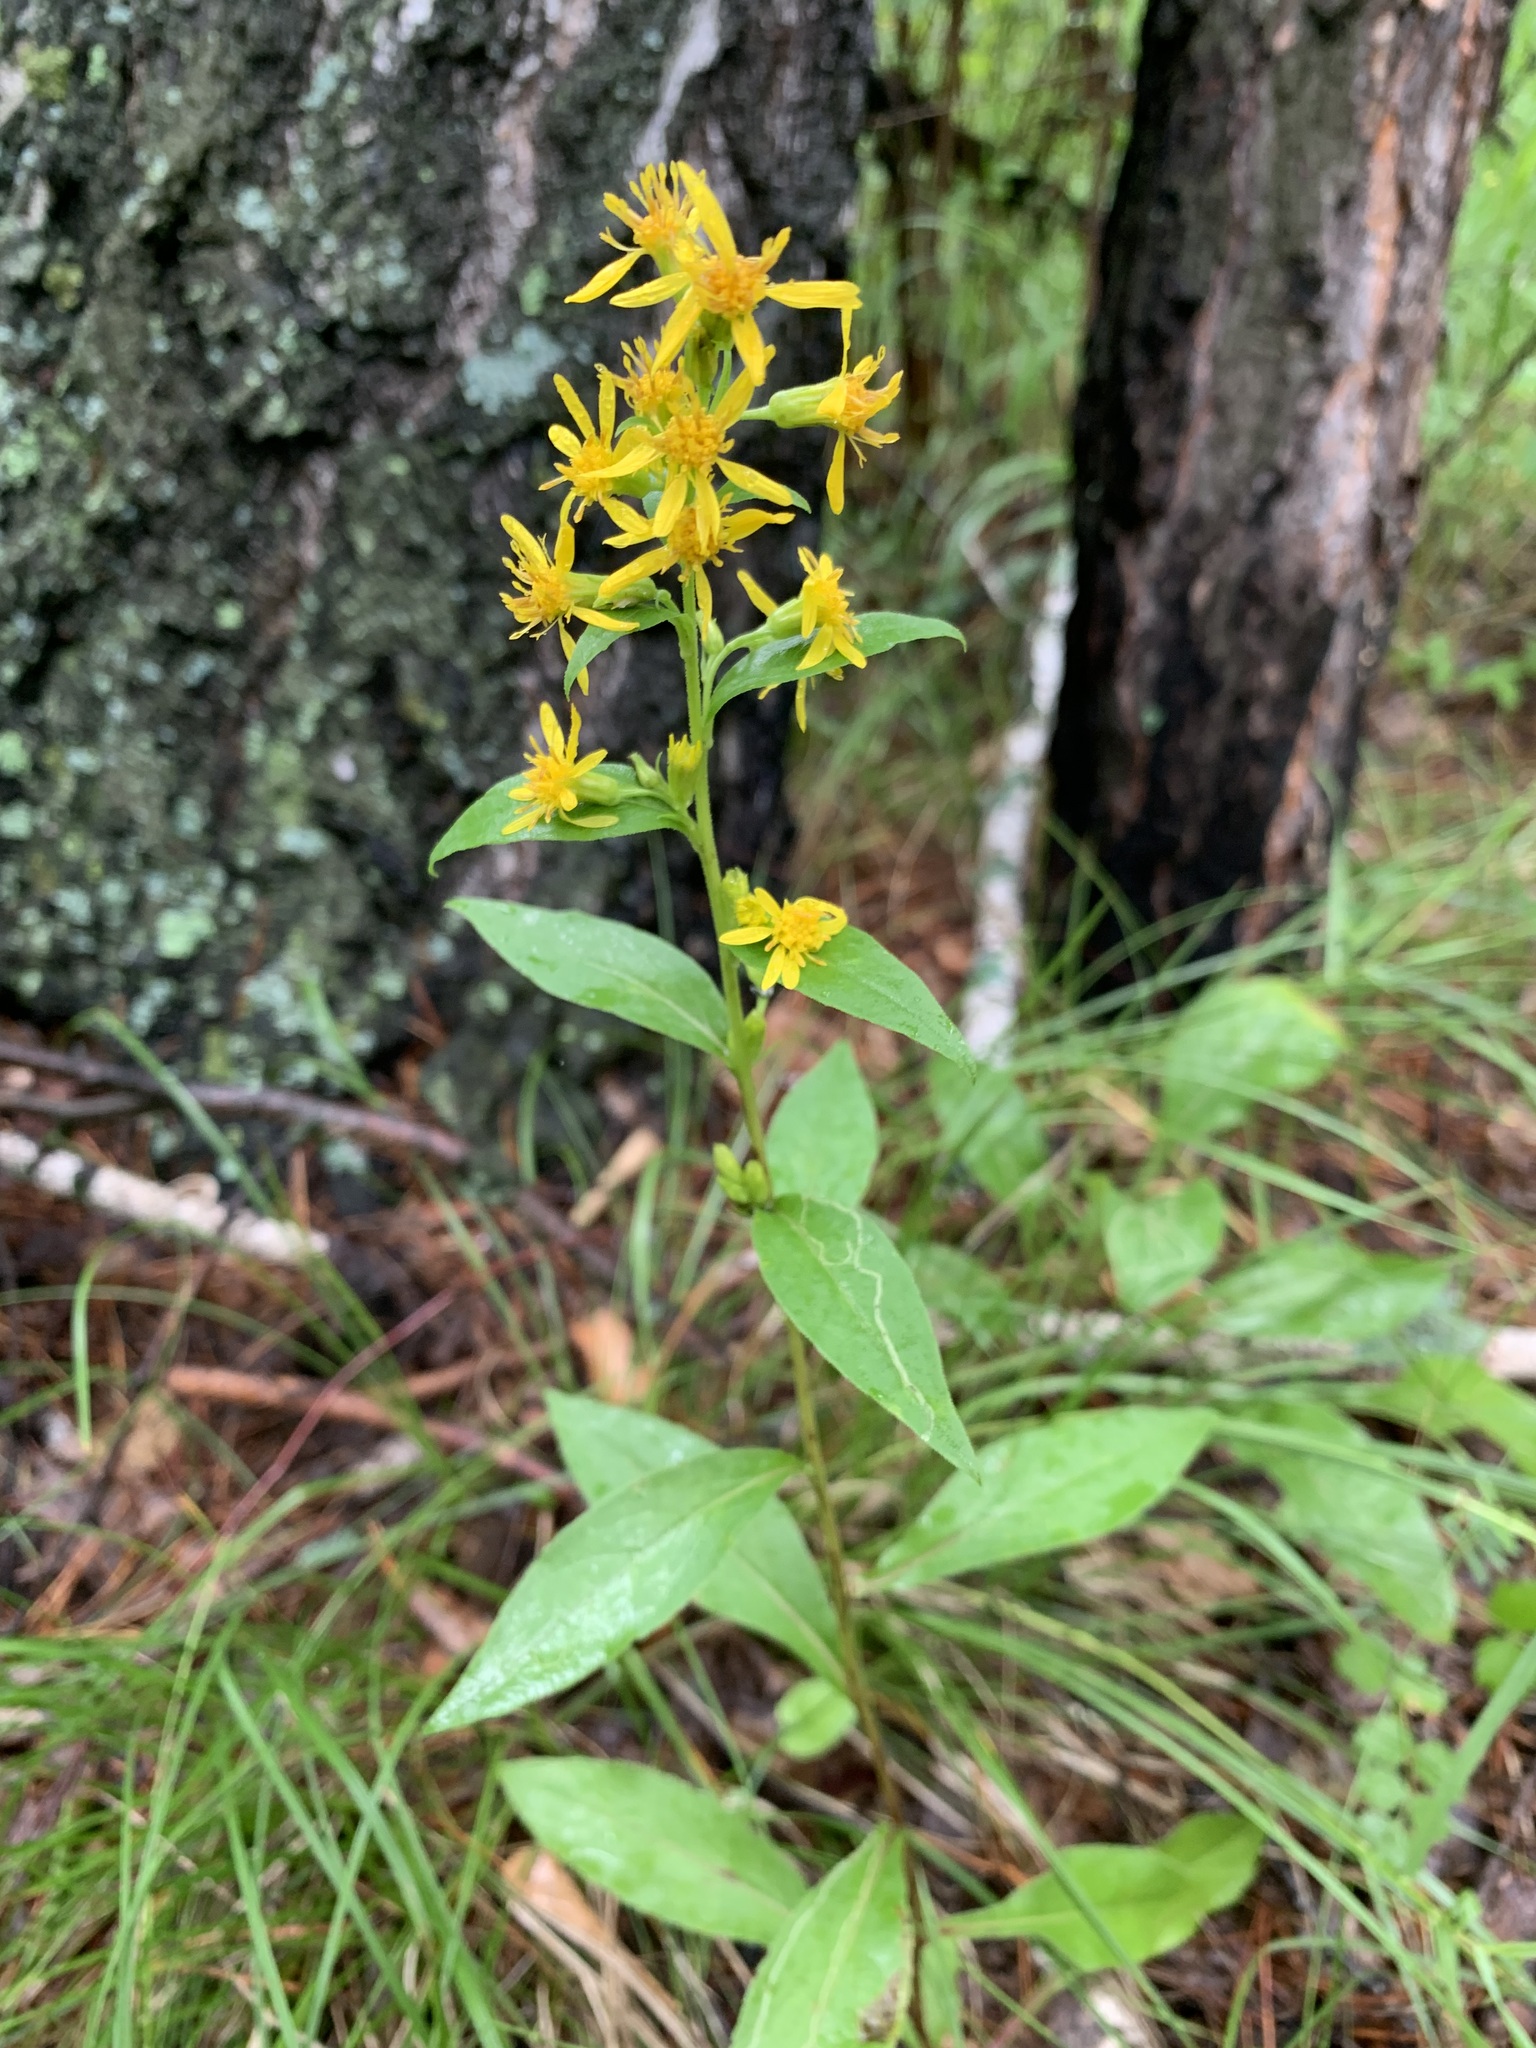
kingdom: Plantae
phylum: Tracheophyta
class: Magnoliopsida
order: Asterales
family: Asteraceae
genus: Solidago
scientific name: Solidago virgaurea
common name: Goldenrod
